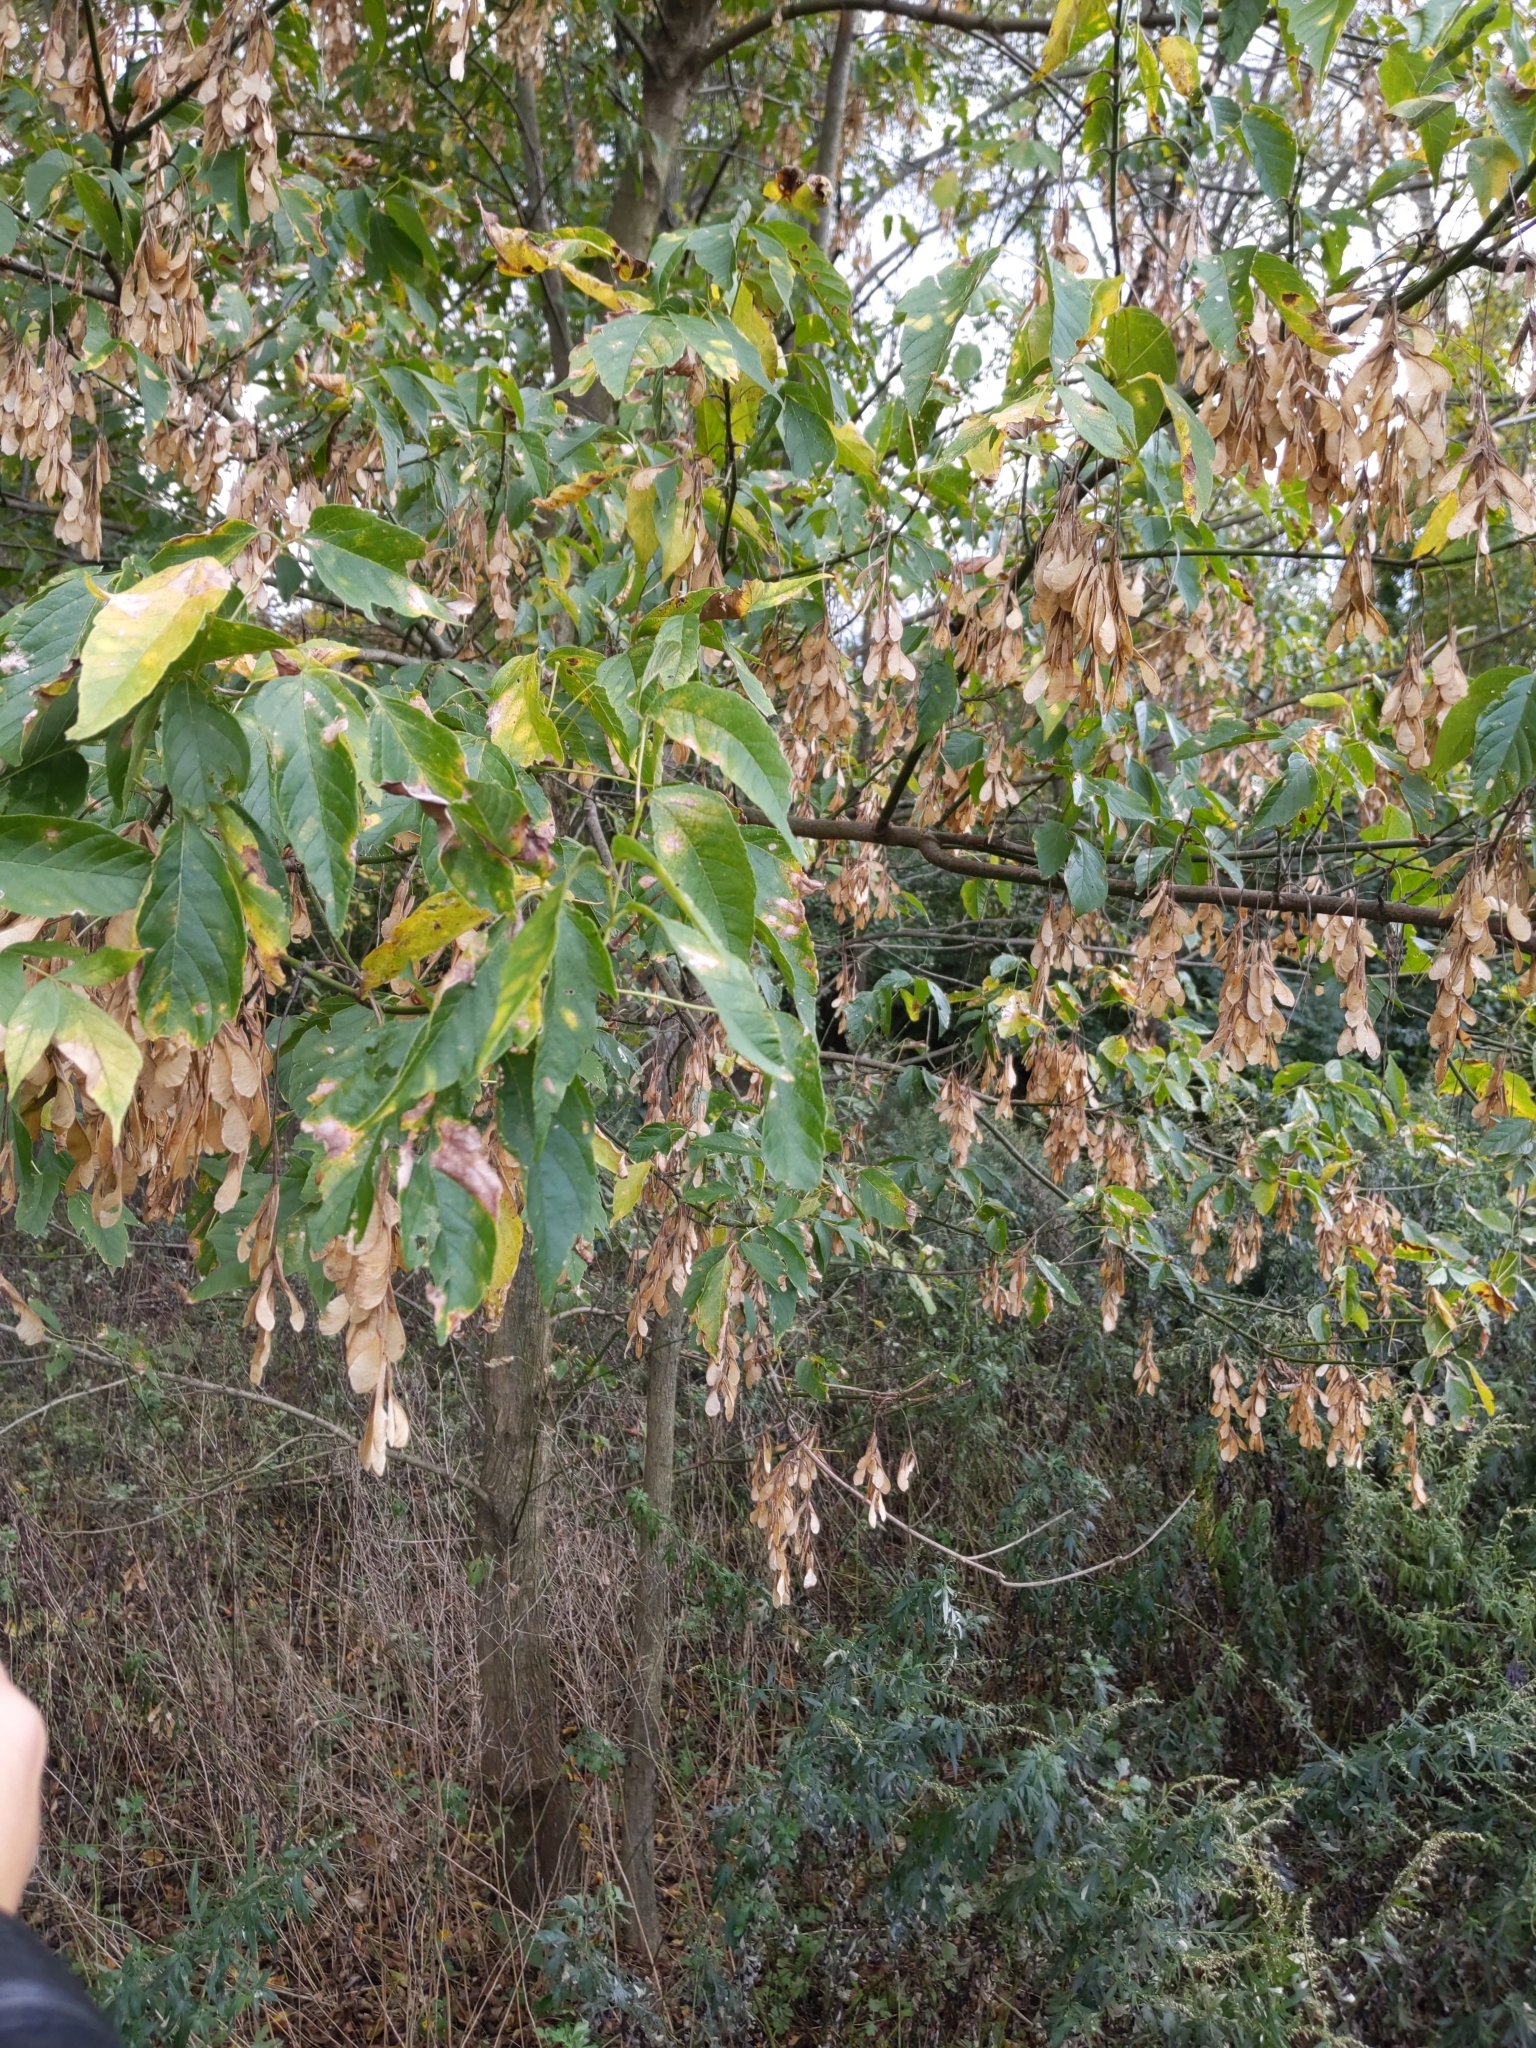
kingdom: Plantae
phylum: Tracheophyta
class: Magnoliopsida
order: Sapindales
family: Sapindaceae
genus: Acer
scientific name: Acer negundo
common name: Ashleaf maple
